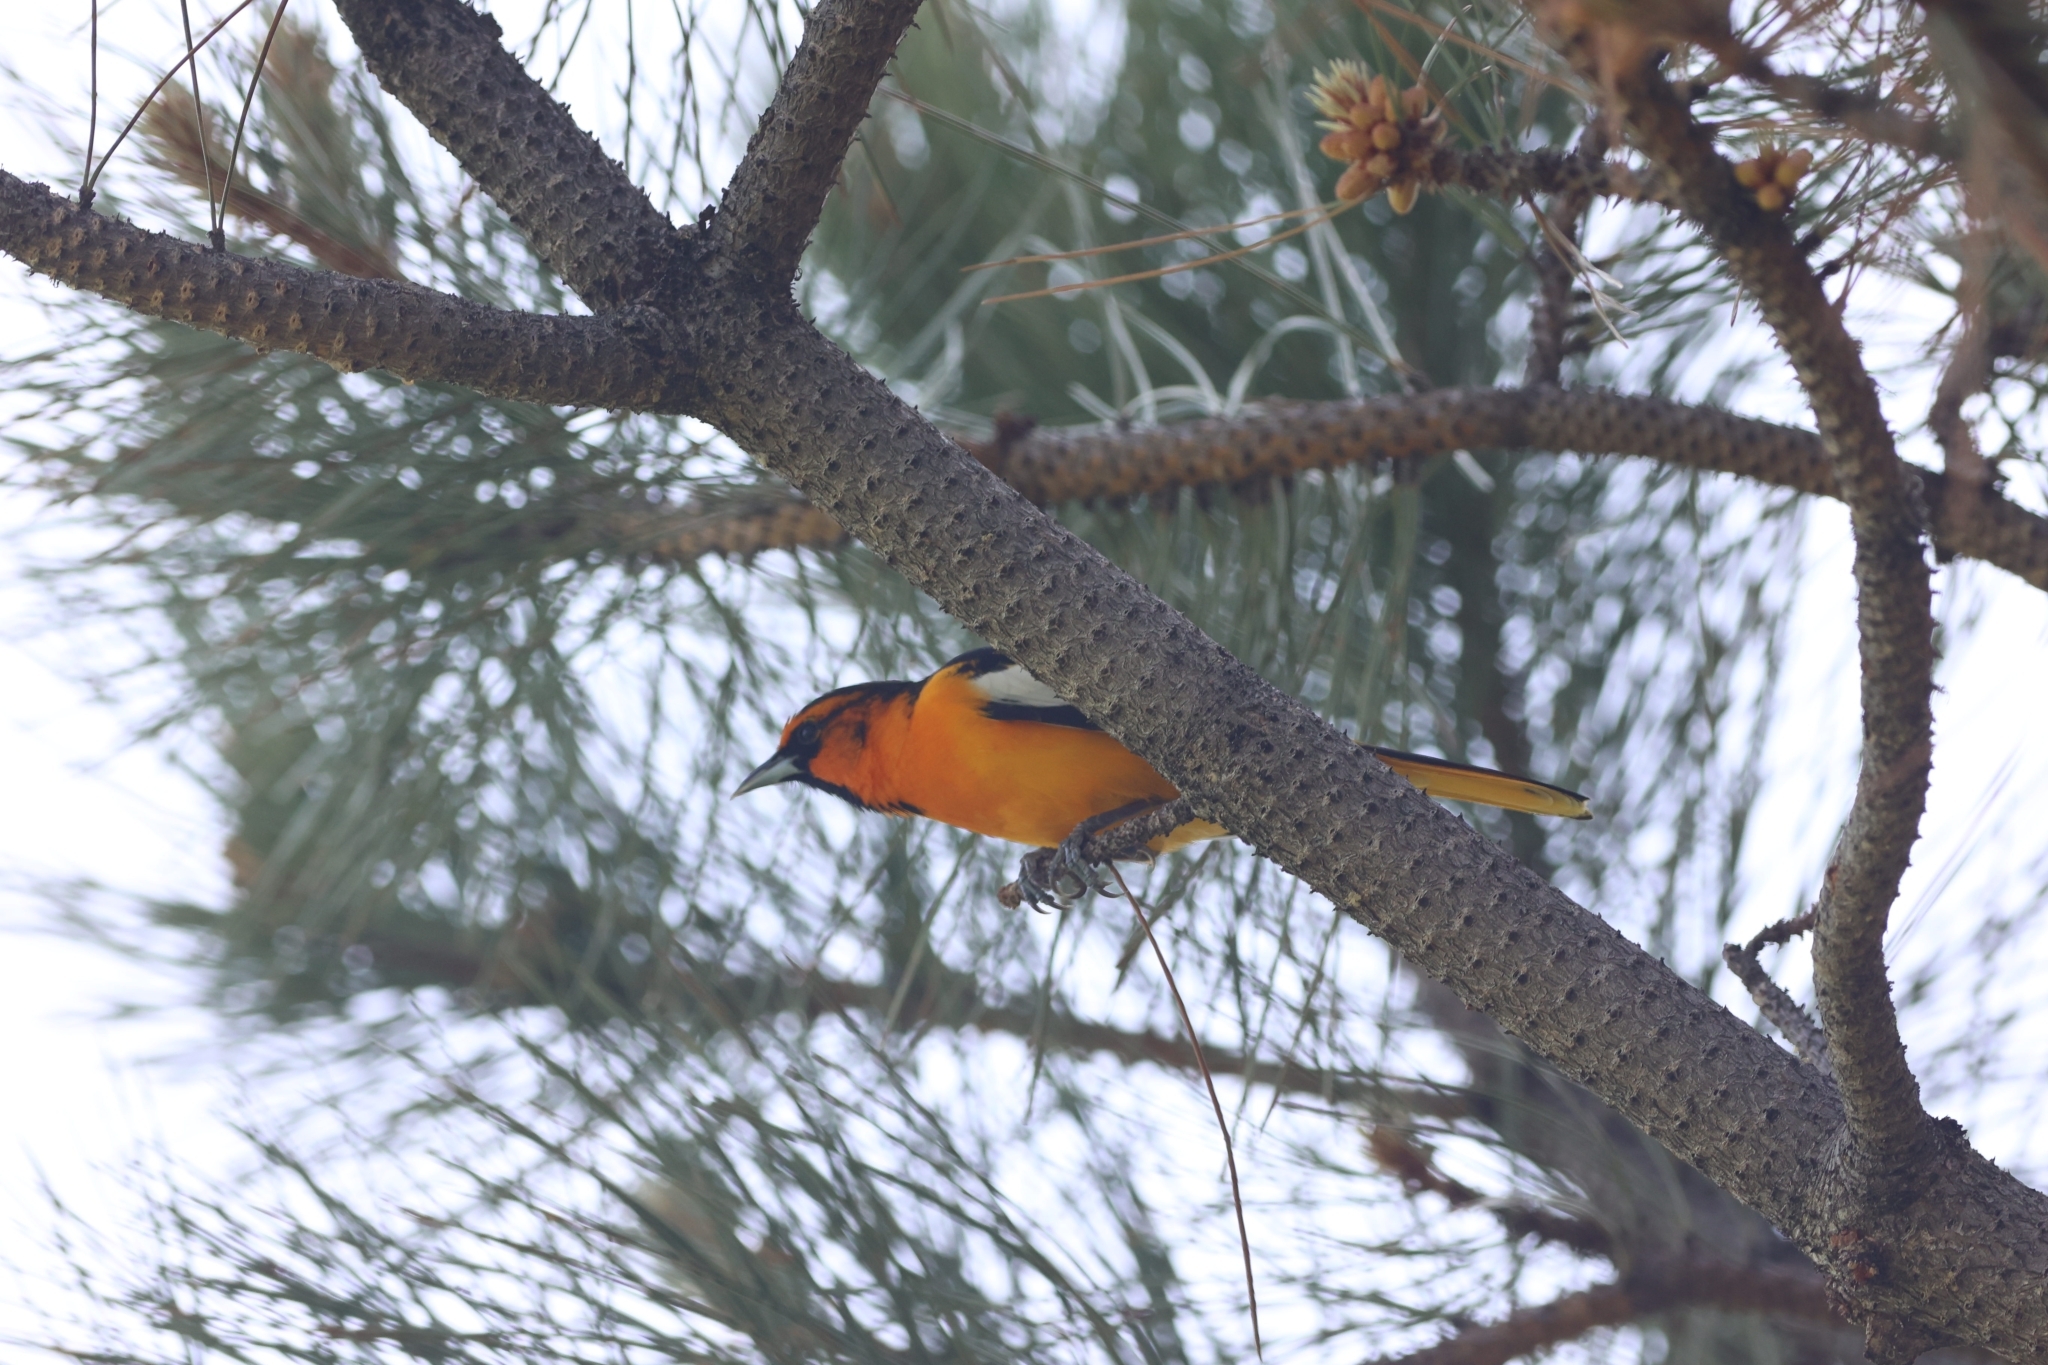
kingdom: Animalia
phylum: Chordata
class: Aves
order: Passeriformes
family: Icteridae
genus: Icterus
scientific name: Icterus bullockii
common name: Bullock's oriole
